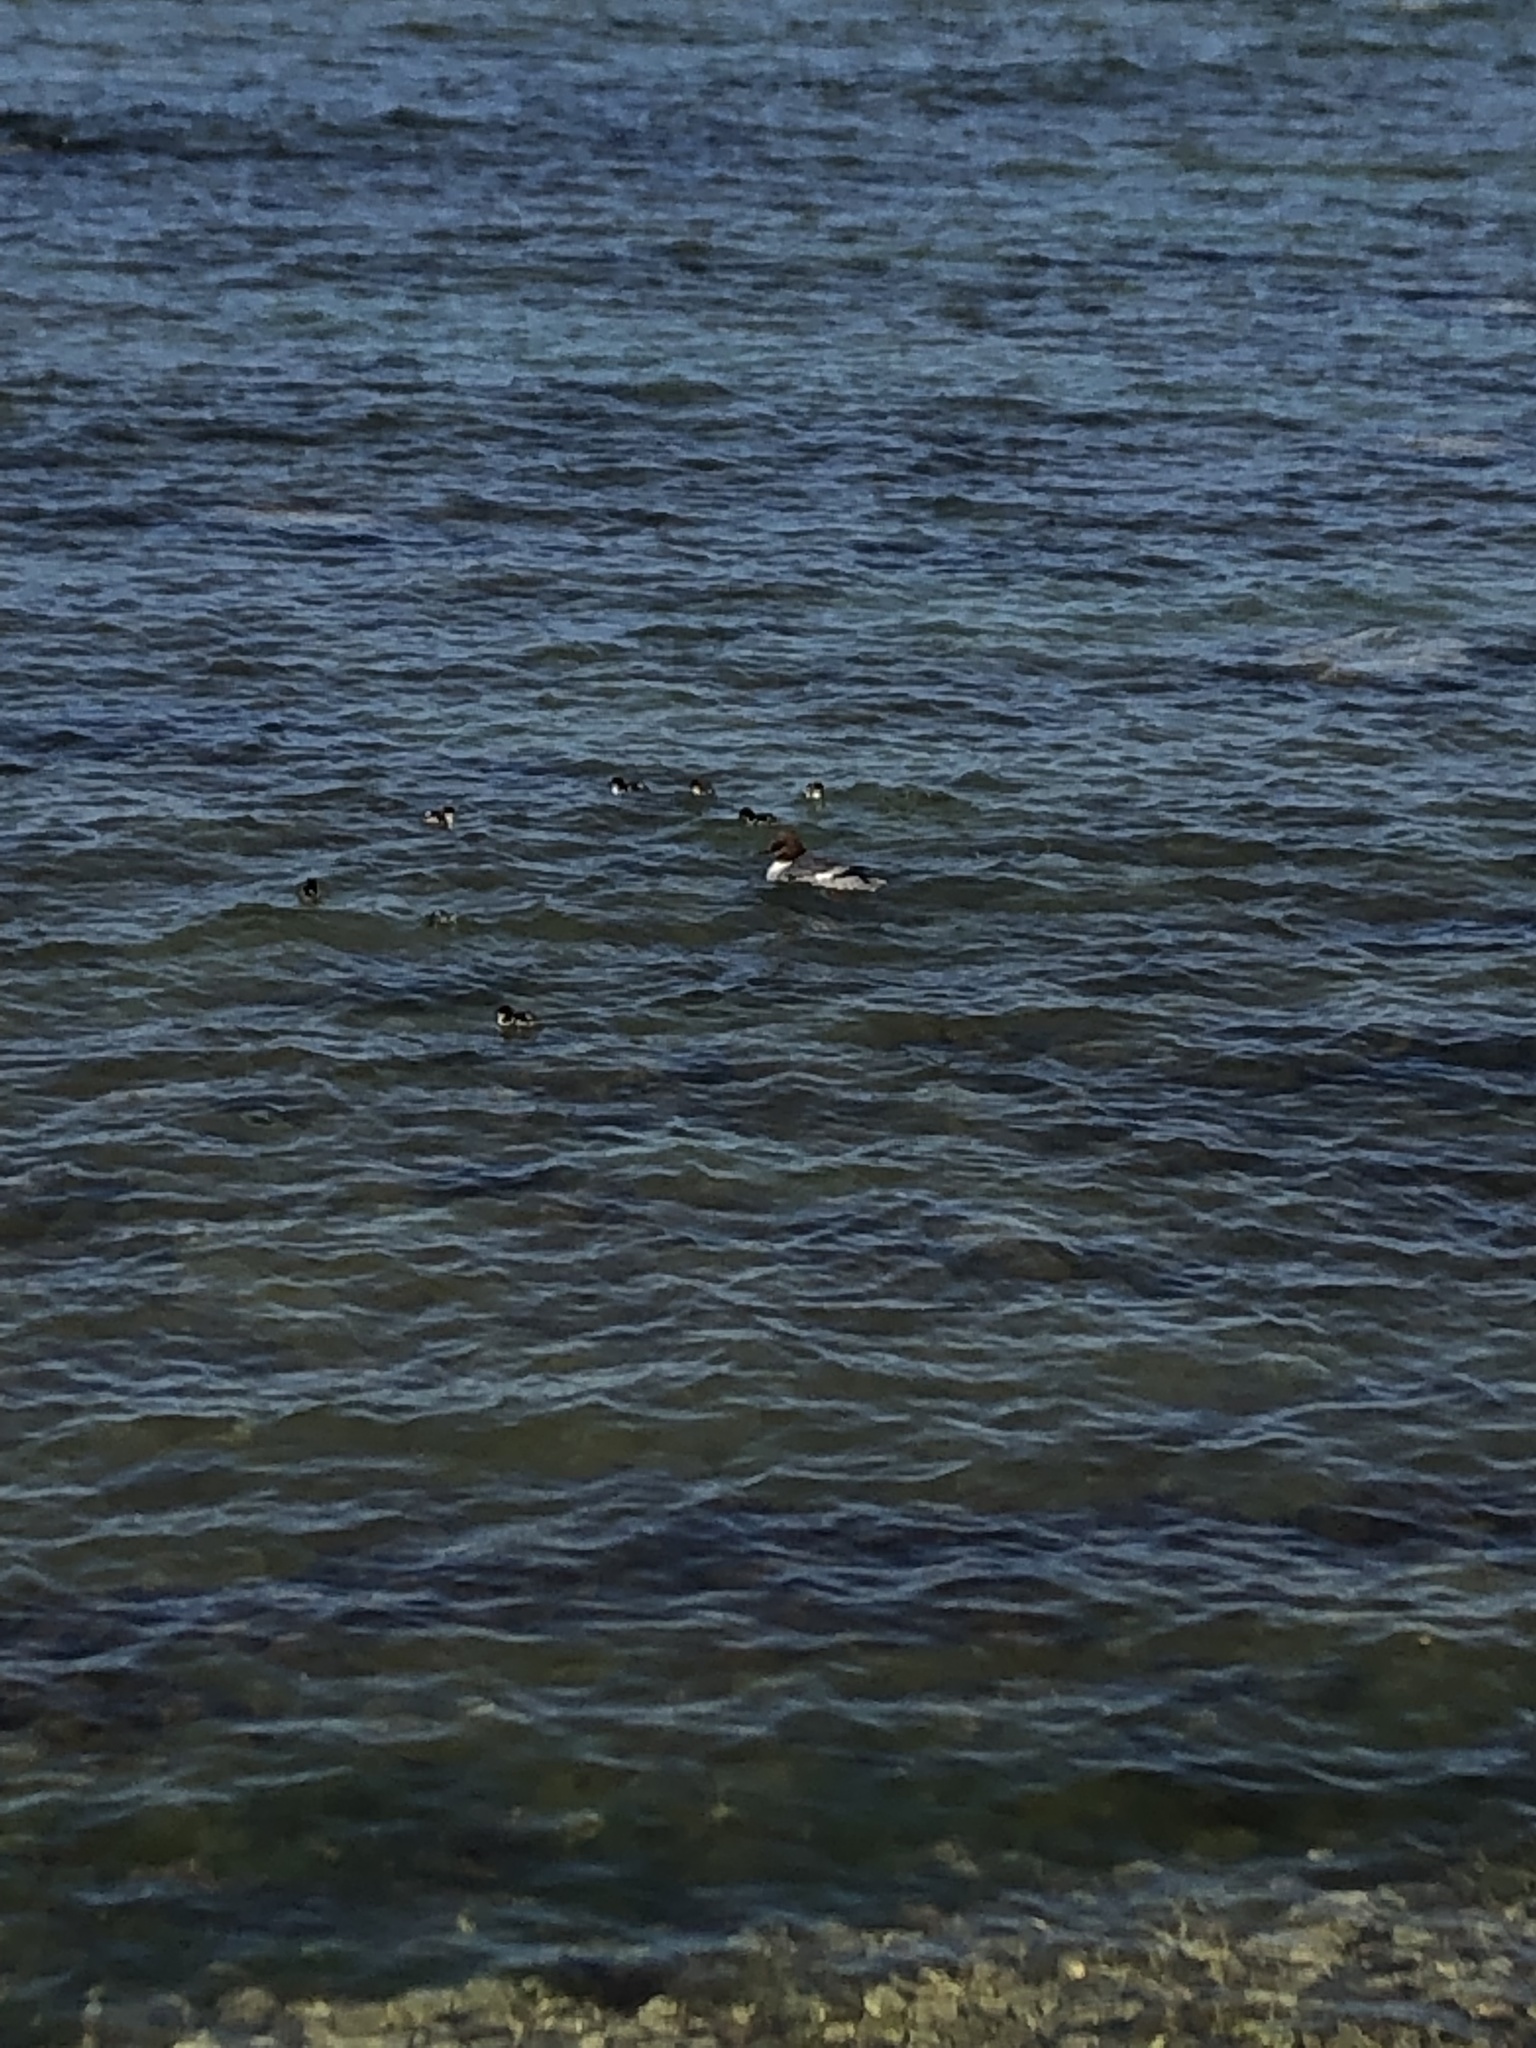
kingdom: Animalia
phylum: Chordata
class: Aves
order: Anseriformes
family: Anatidae
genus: Mergus
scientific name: Mergus merganser
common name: Common merganser
